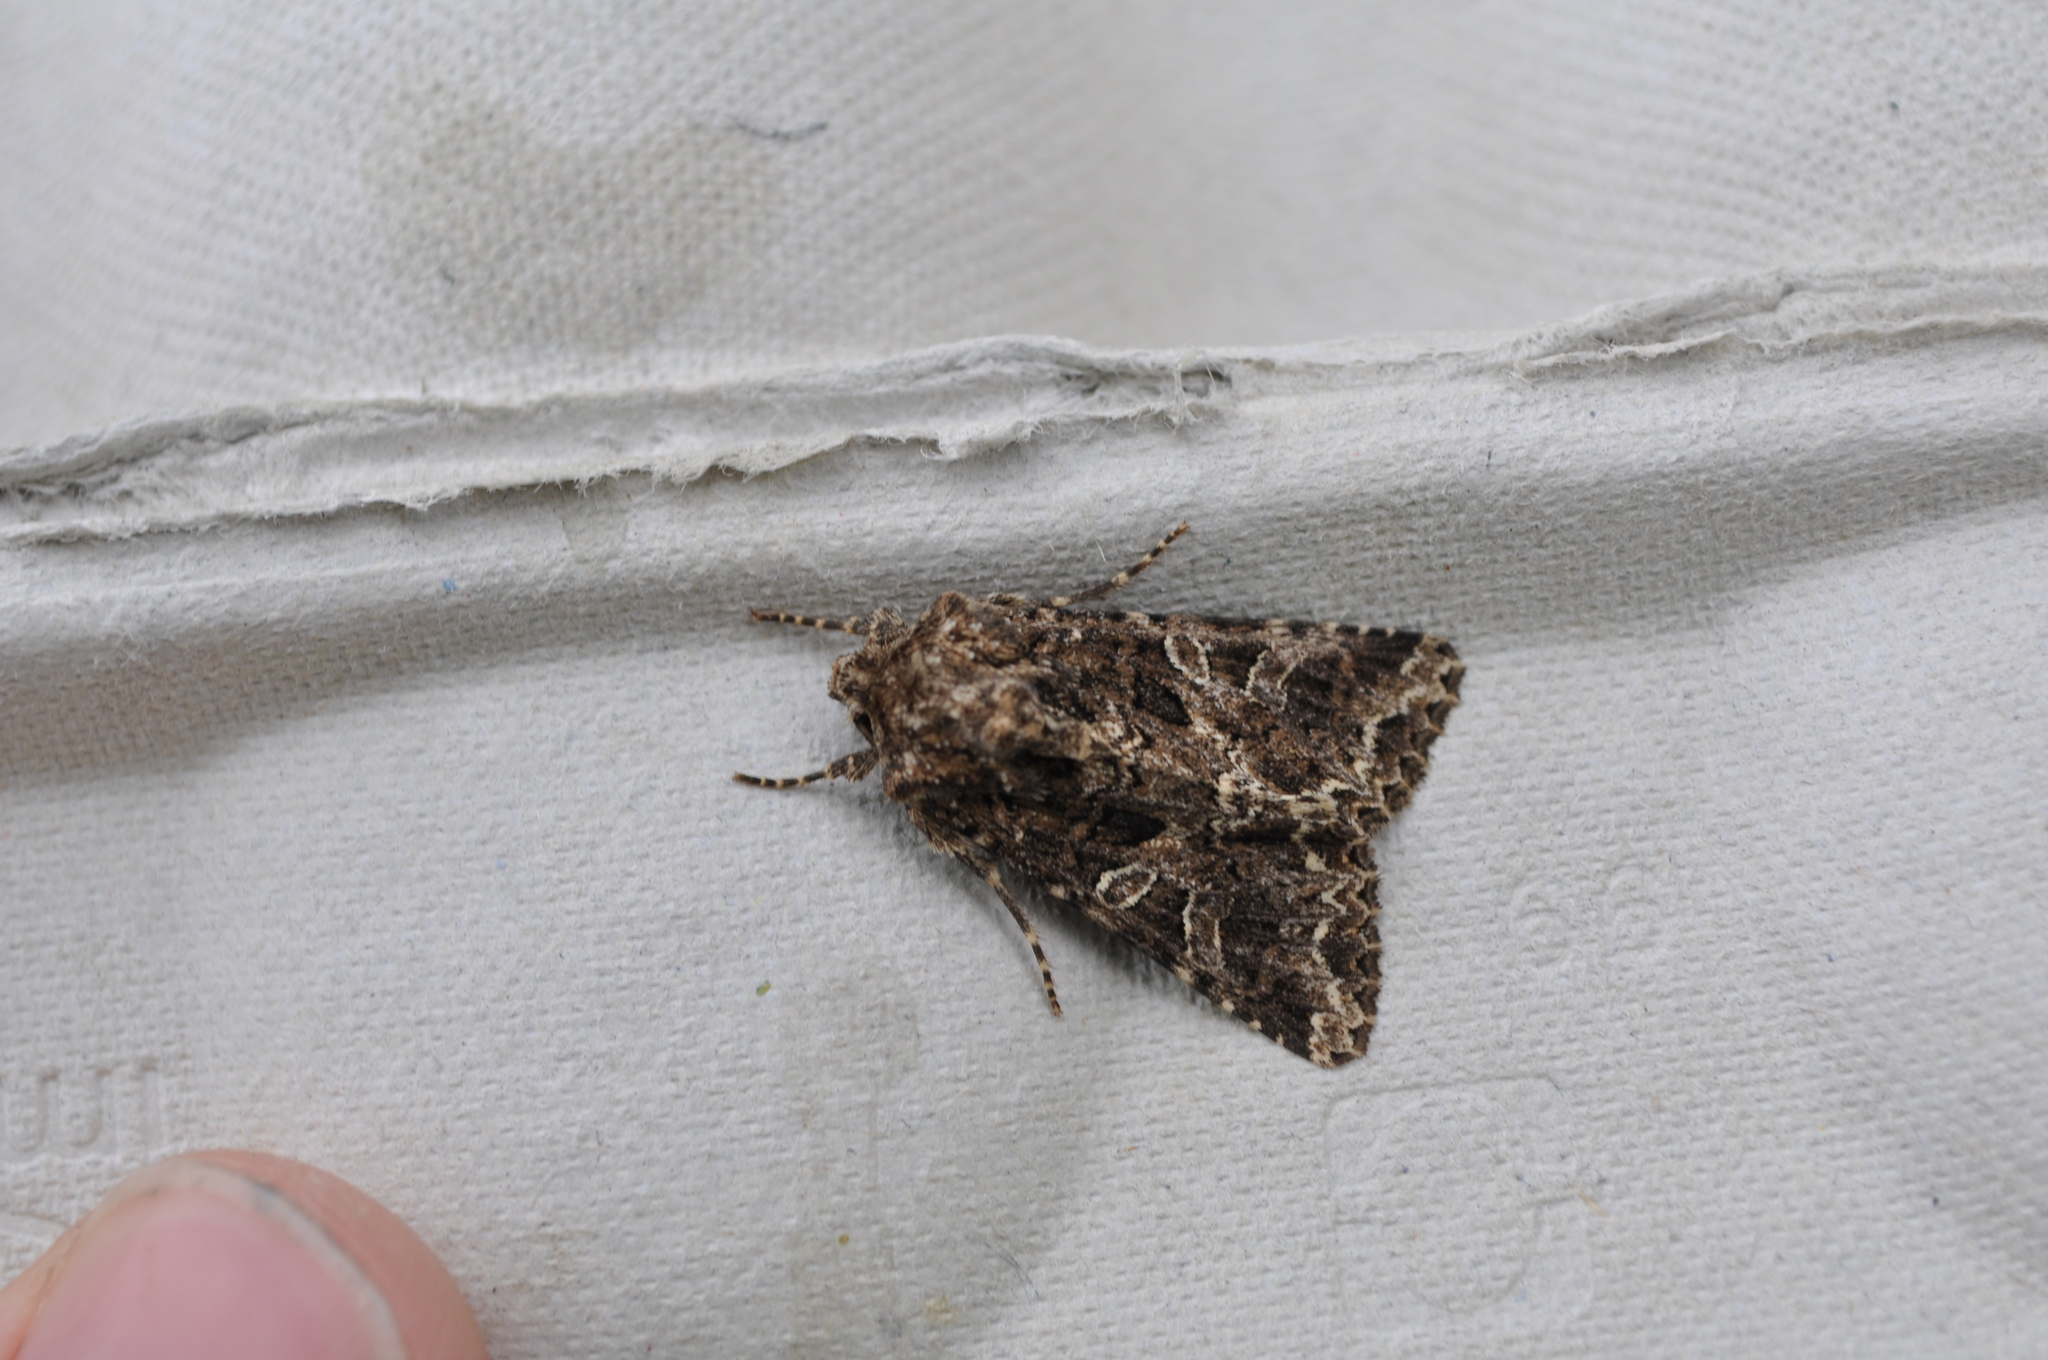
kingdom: Animalia
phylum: Arthropoda
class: Insecta
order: Lepidoptera
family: Noctuidae
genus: Hadena
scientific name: Hadena bicruris
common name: Lychnis
